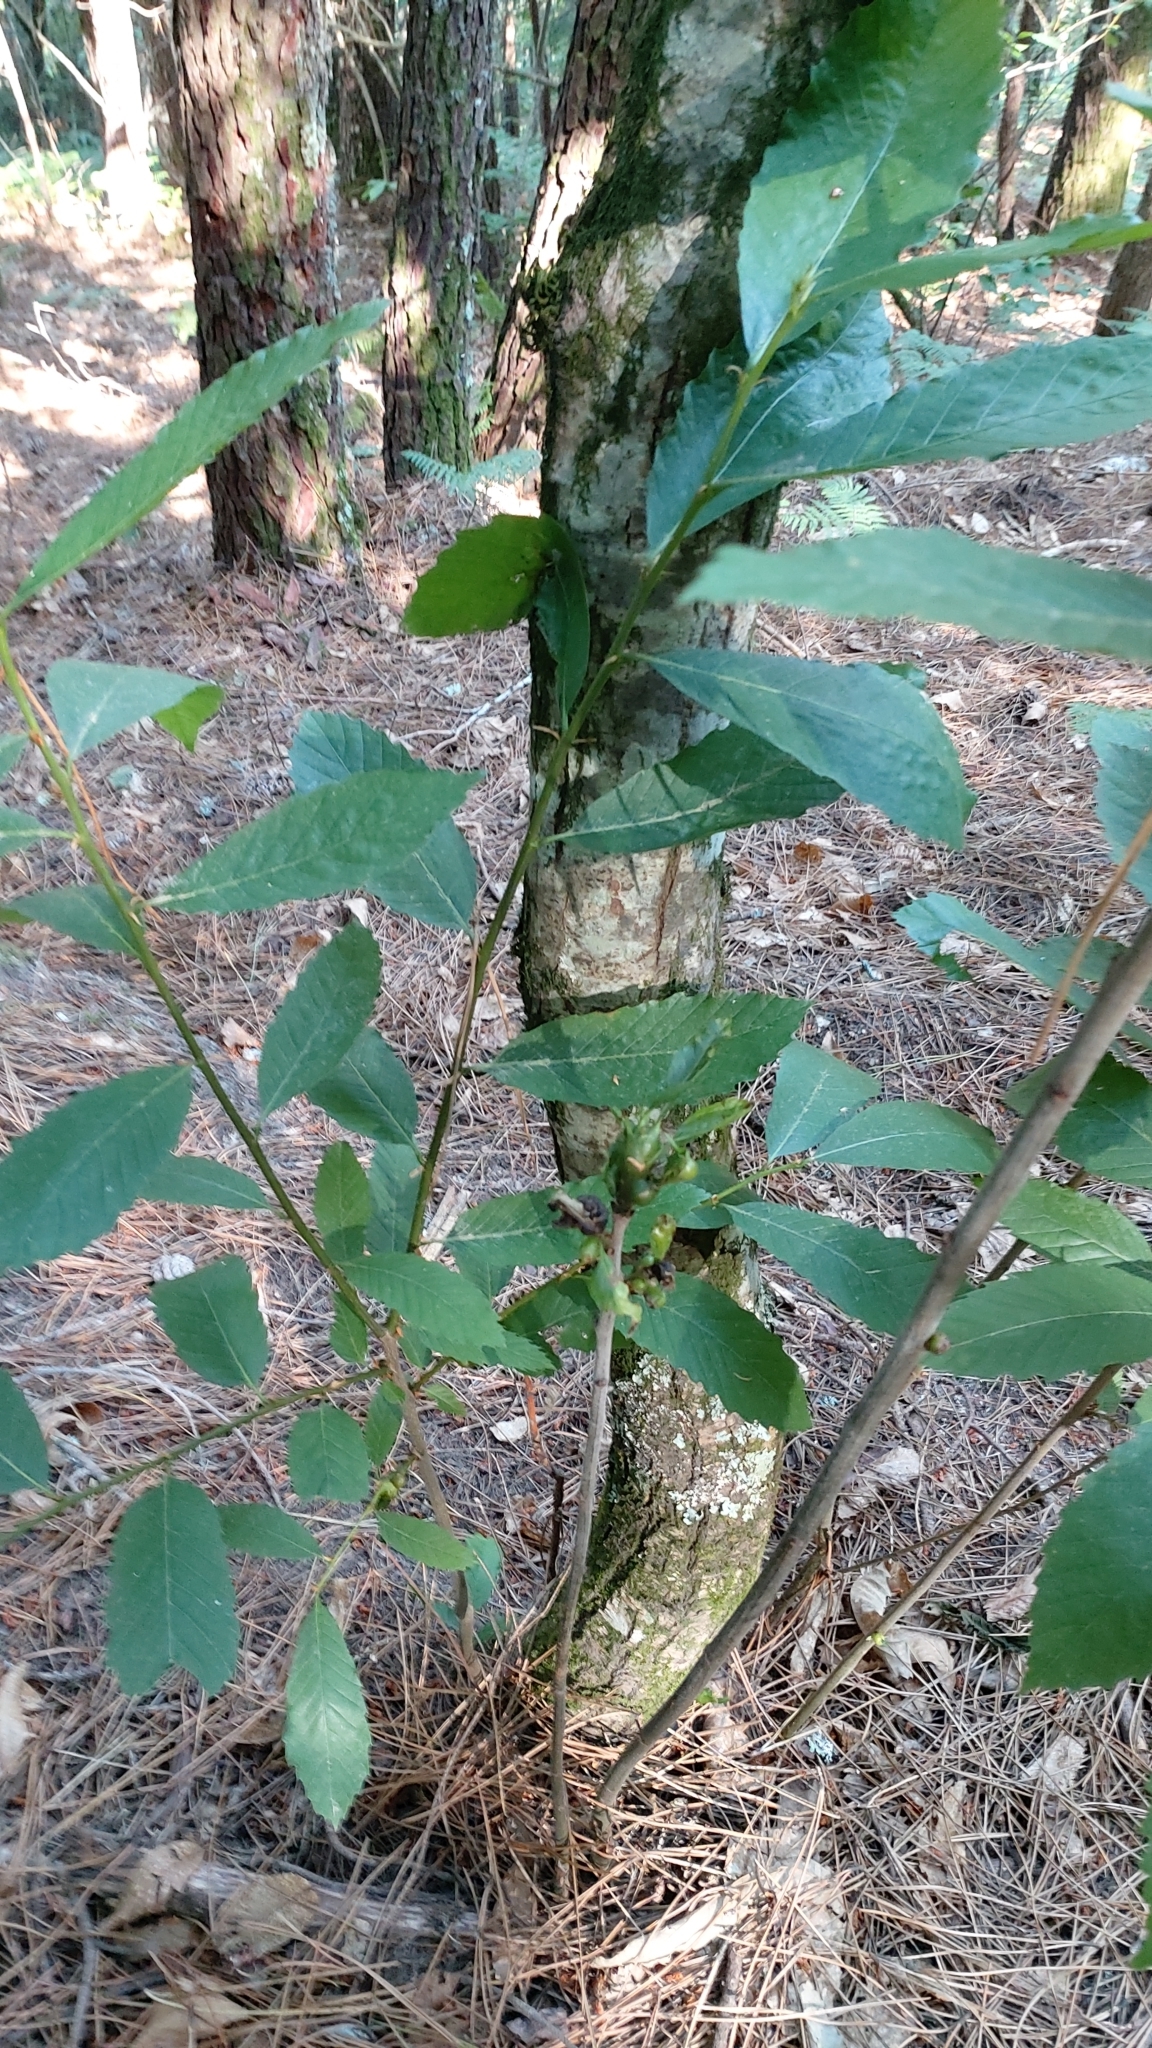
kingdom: Animalia
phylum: Arthropoda
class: Insecta
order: Hymenoptera
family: Cynipidae
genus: Dryocosmus
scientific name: Dryocosmus kuriphilus
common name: Asian chestnut gall wasp
